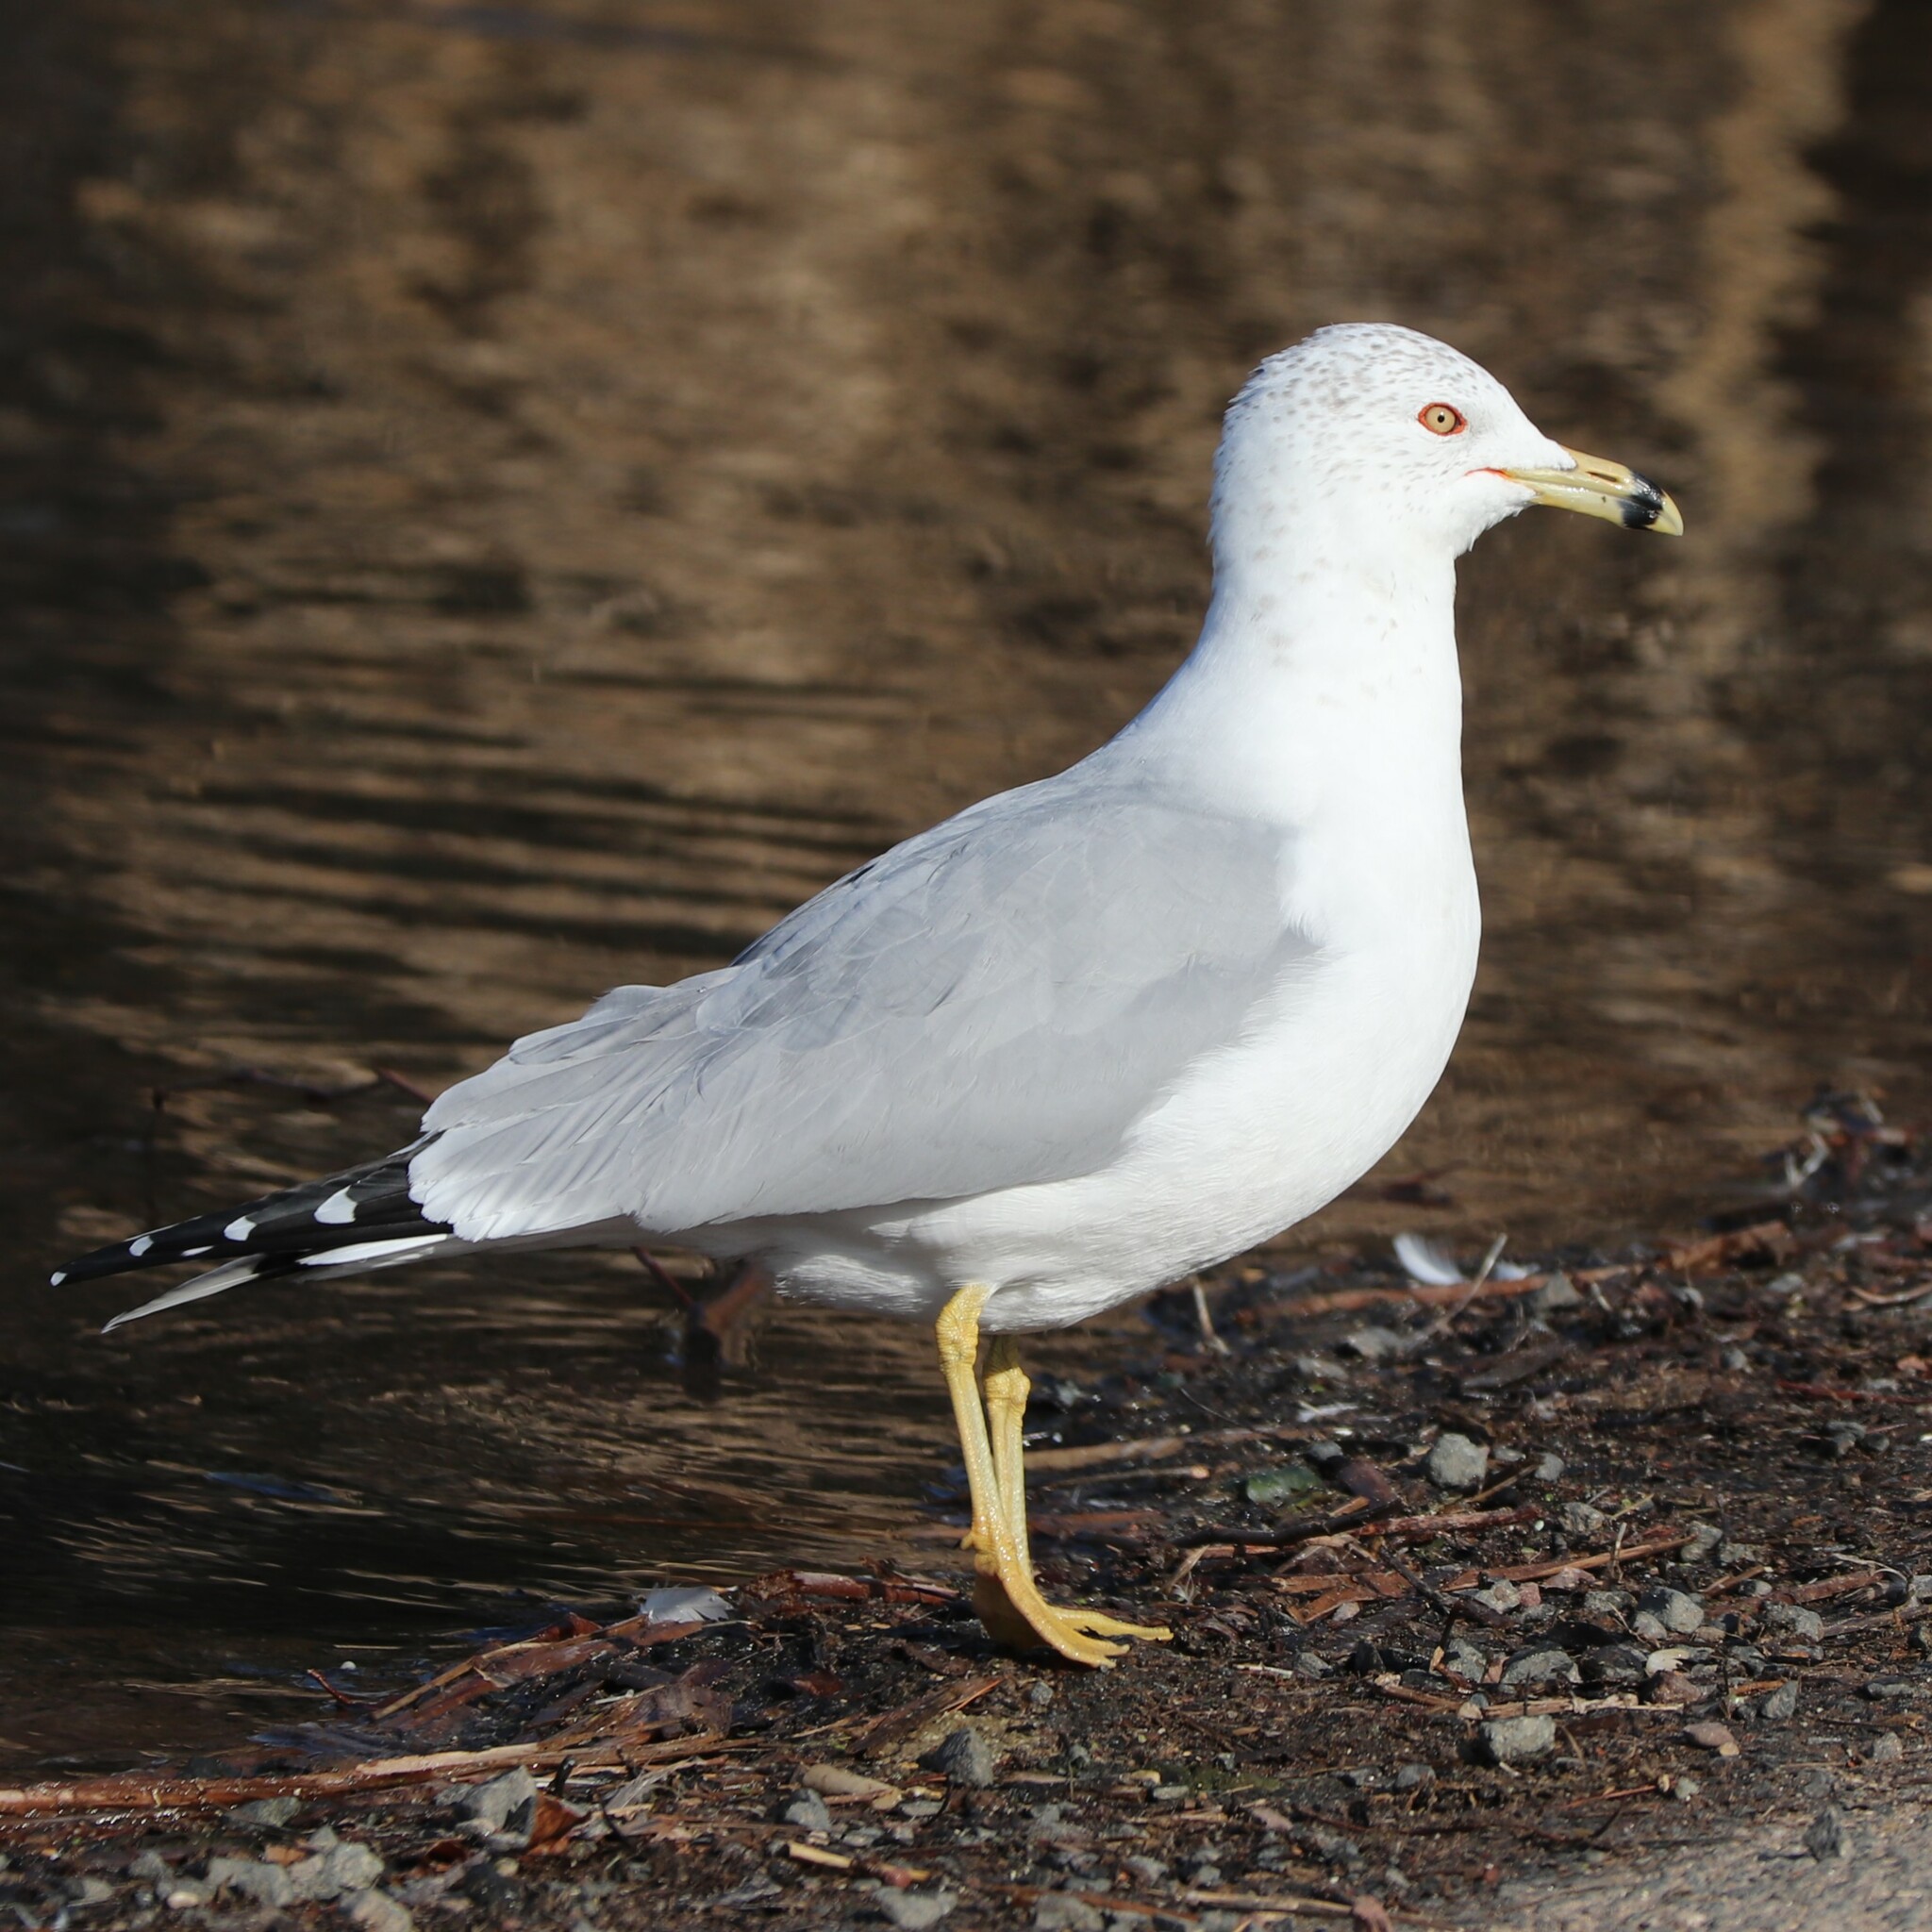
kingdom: Animalia
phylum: Chordata
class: Aves
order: Charadriiformes
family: Laridae
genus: Larus
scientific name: Larus delawarensis
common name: Ring-billed gull
